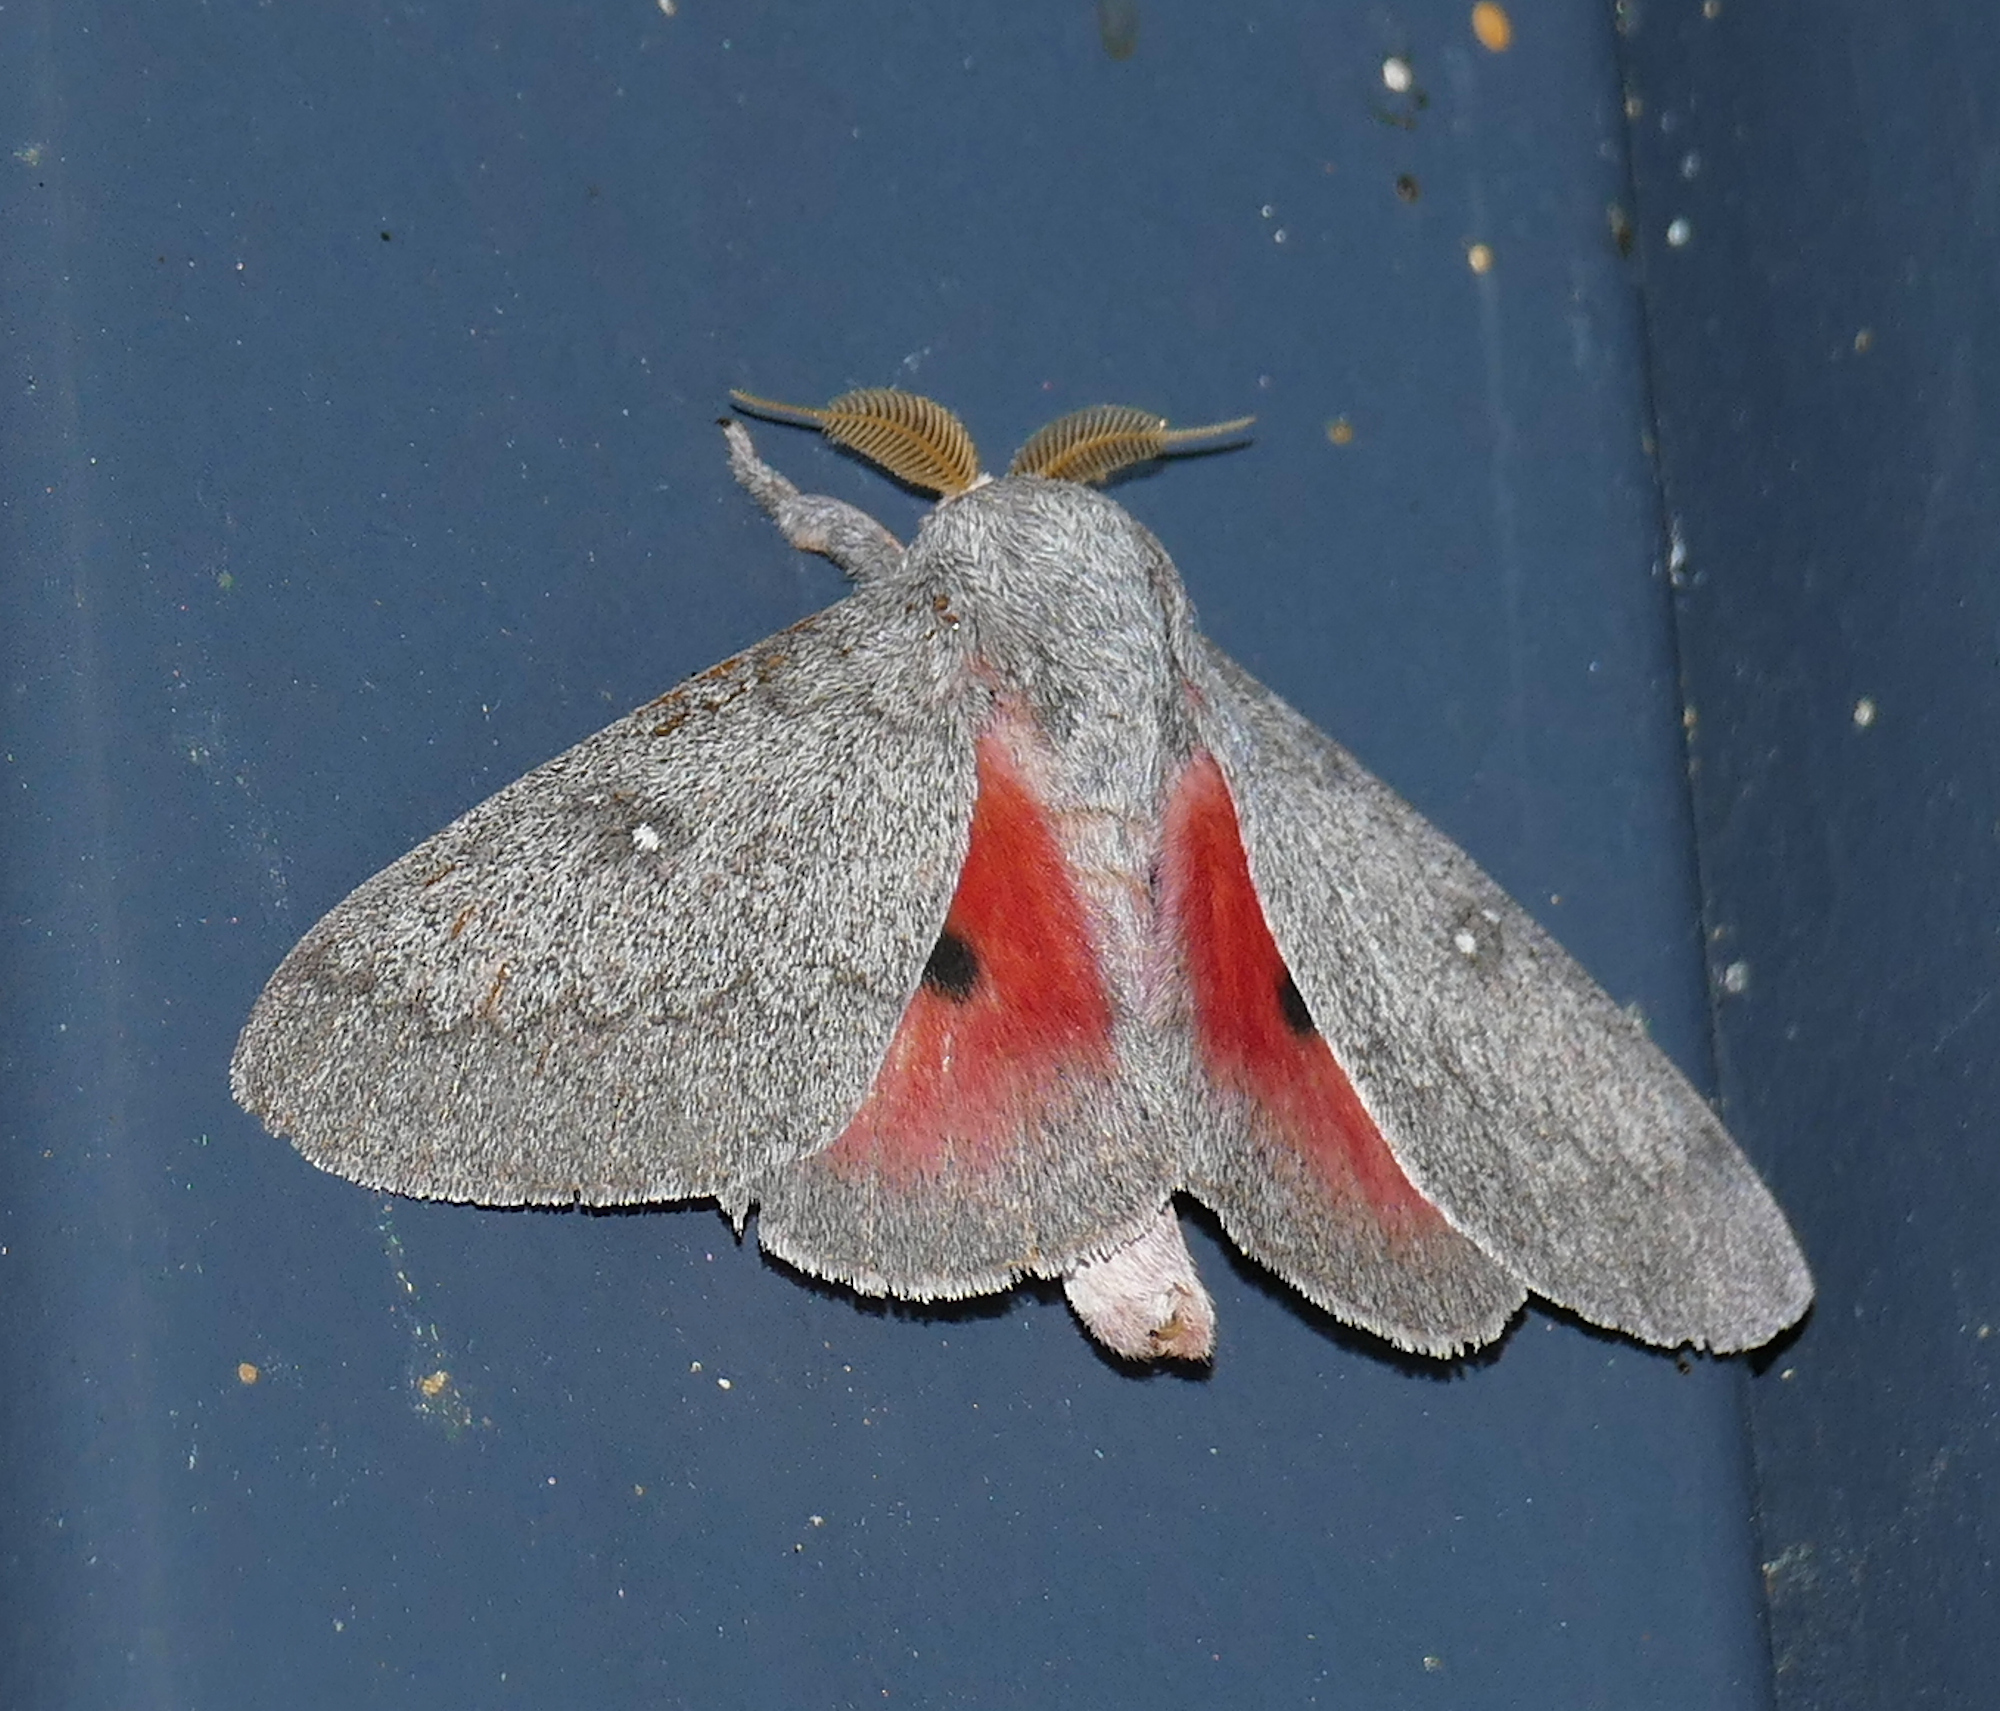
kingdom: Animalia
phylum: Arthropoda
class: Insecta
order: Lepidoptera
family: Saturniidae
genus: Syssphinx
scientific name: Syssphinx hubbardi
